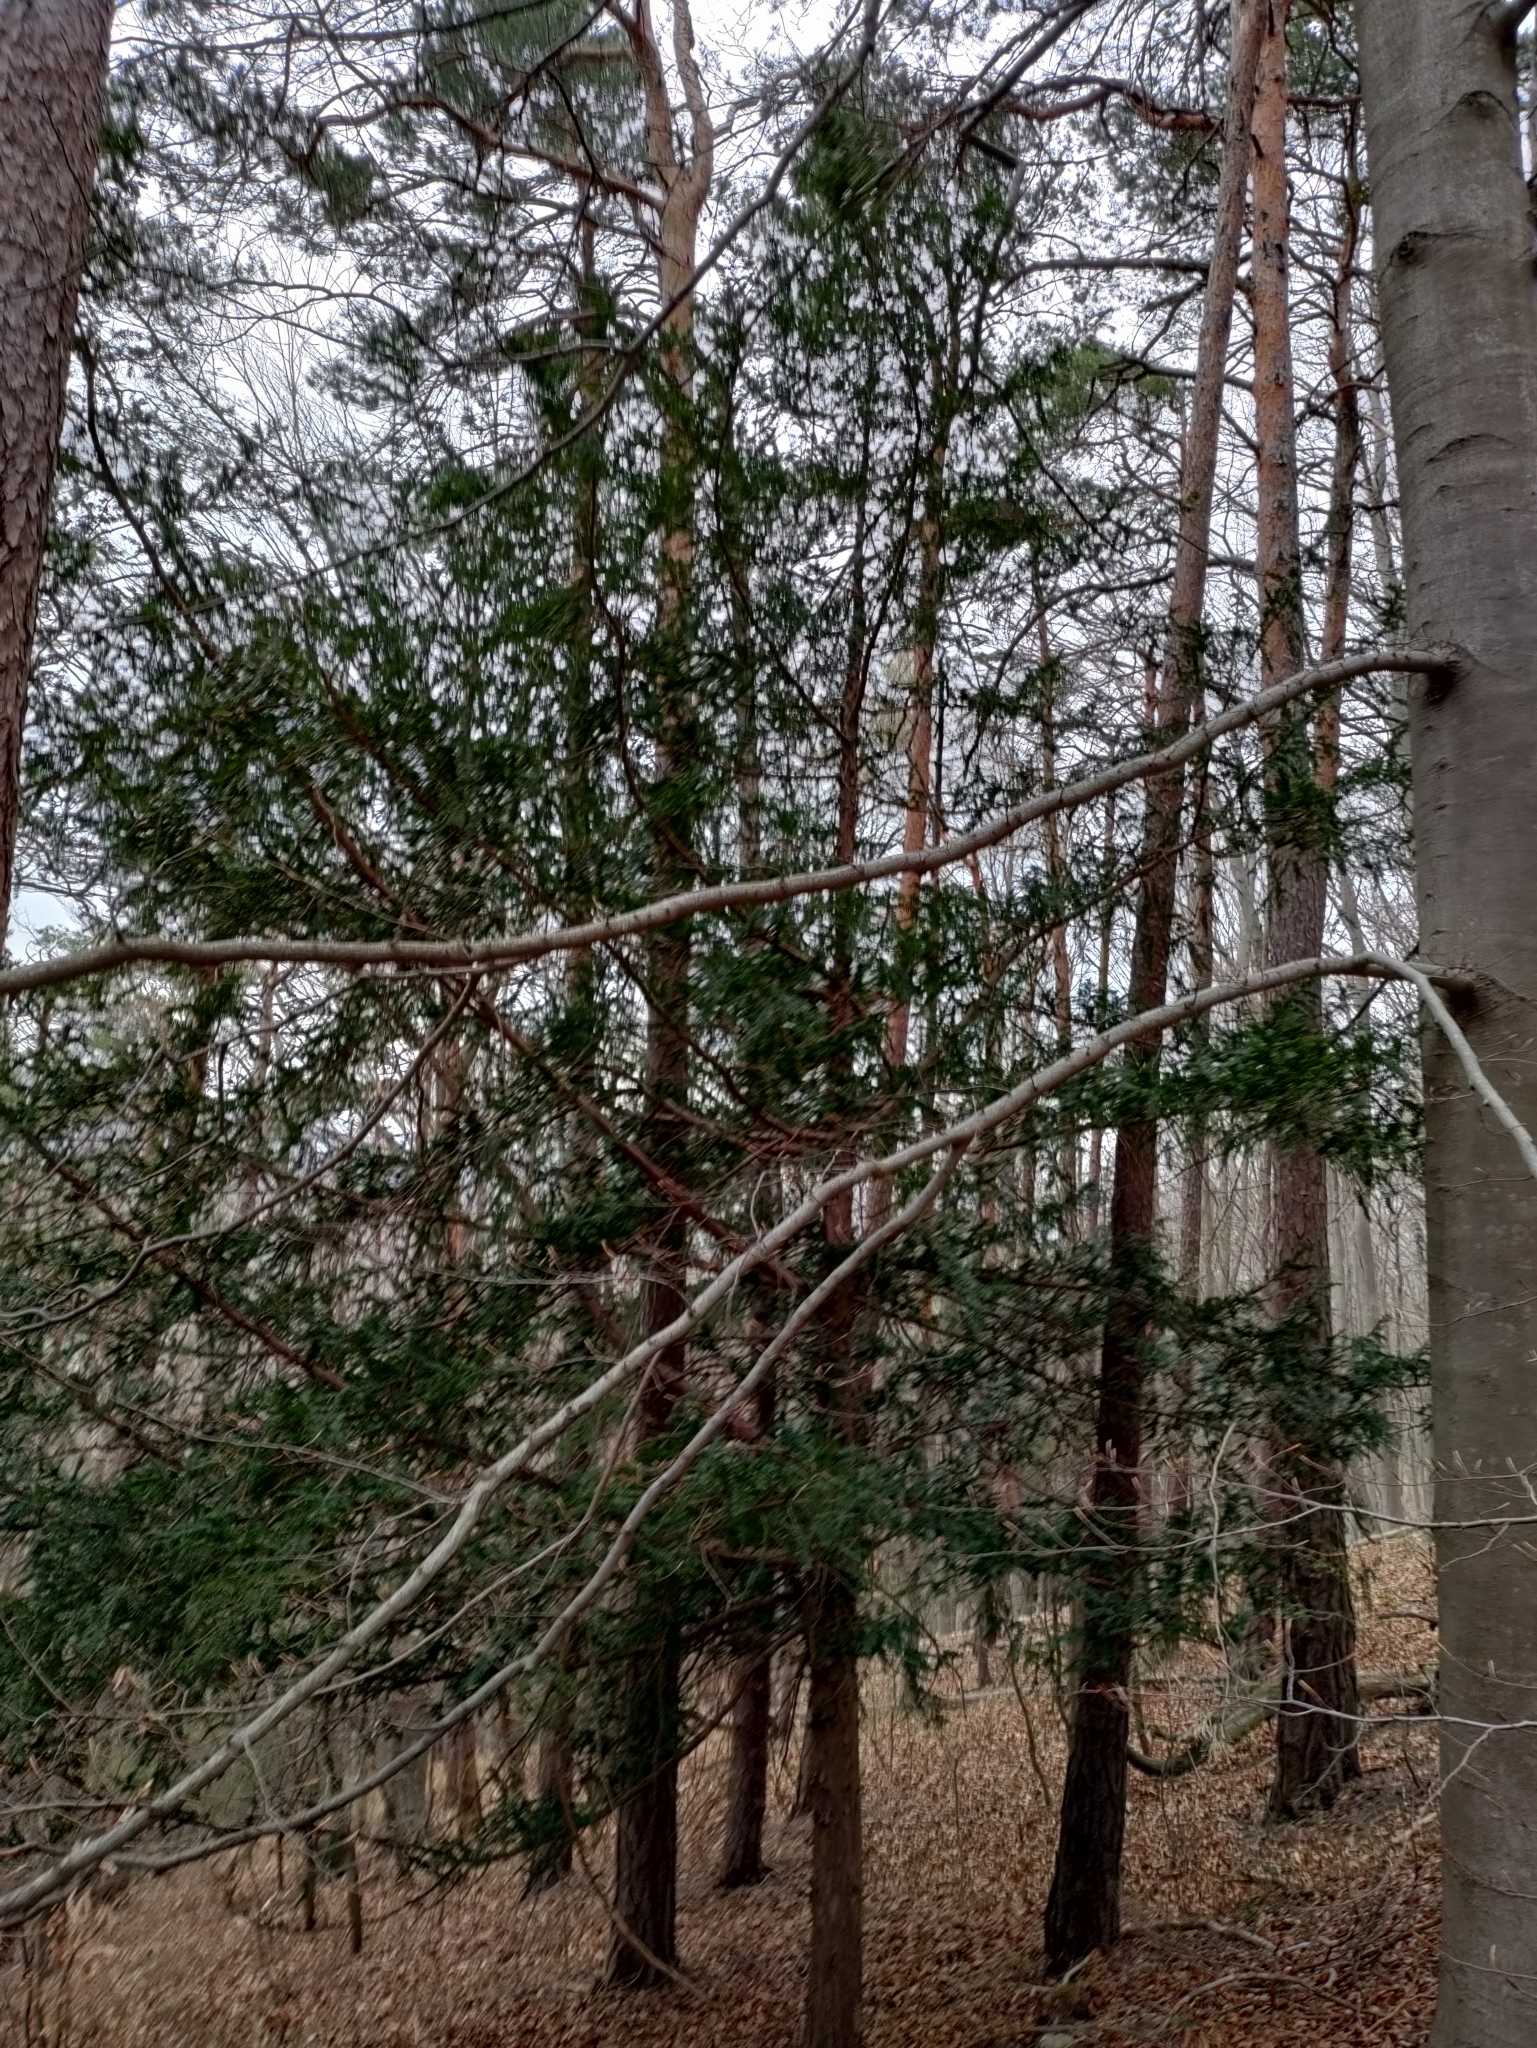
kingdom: Plantae
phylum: Tracheophyta
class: Pinopsida
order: Pinales
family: Taxaceae
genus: Taxus
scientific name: Taxus baccata
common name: Yew
